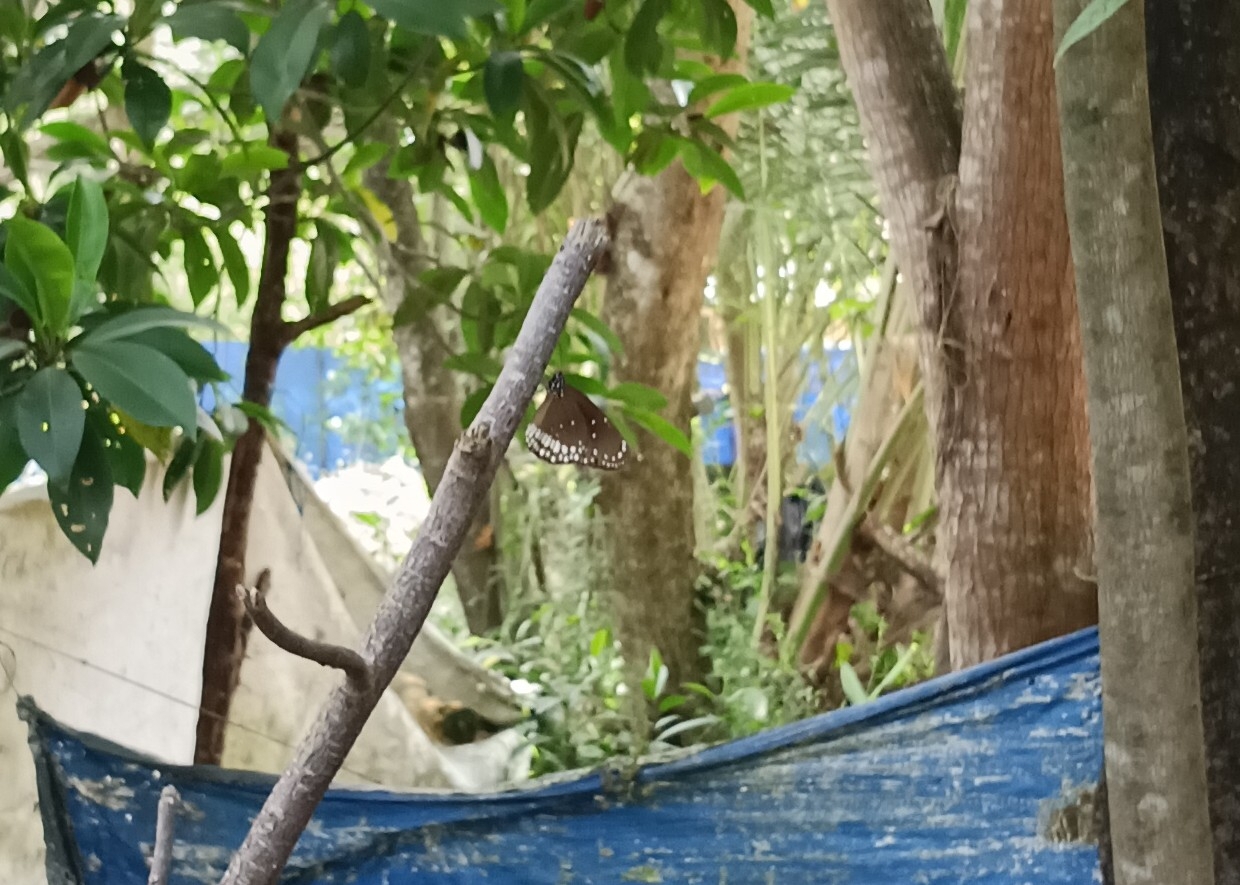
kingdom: Animalia
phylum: Arthropoda
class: Insecta
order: Lepidoptera
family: Nymphalidae
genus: Euploea
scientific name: Euploea core
